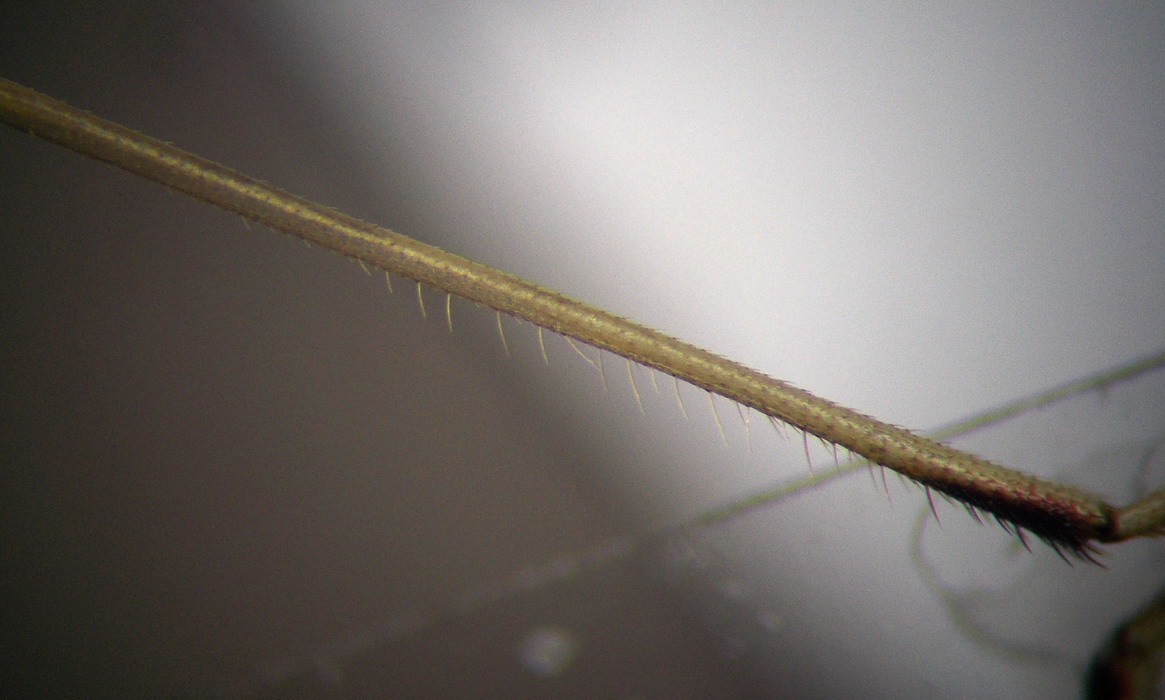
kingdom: Animalia
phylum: Arthropoda
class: Insecta
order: Hemiptera
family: Rhopalidae
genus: Chorosoma
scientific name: Chorosoma schillingii
